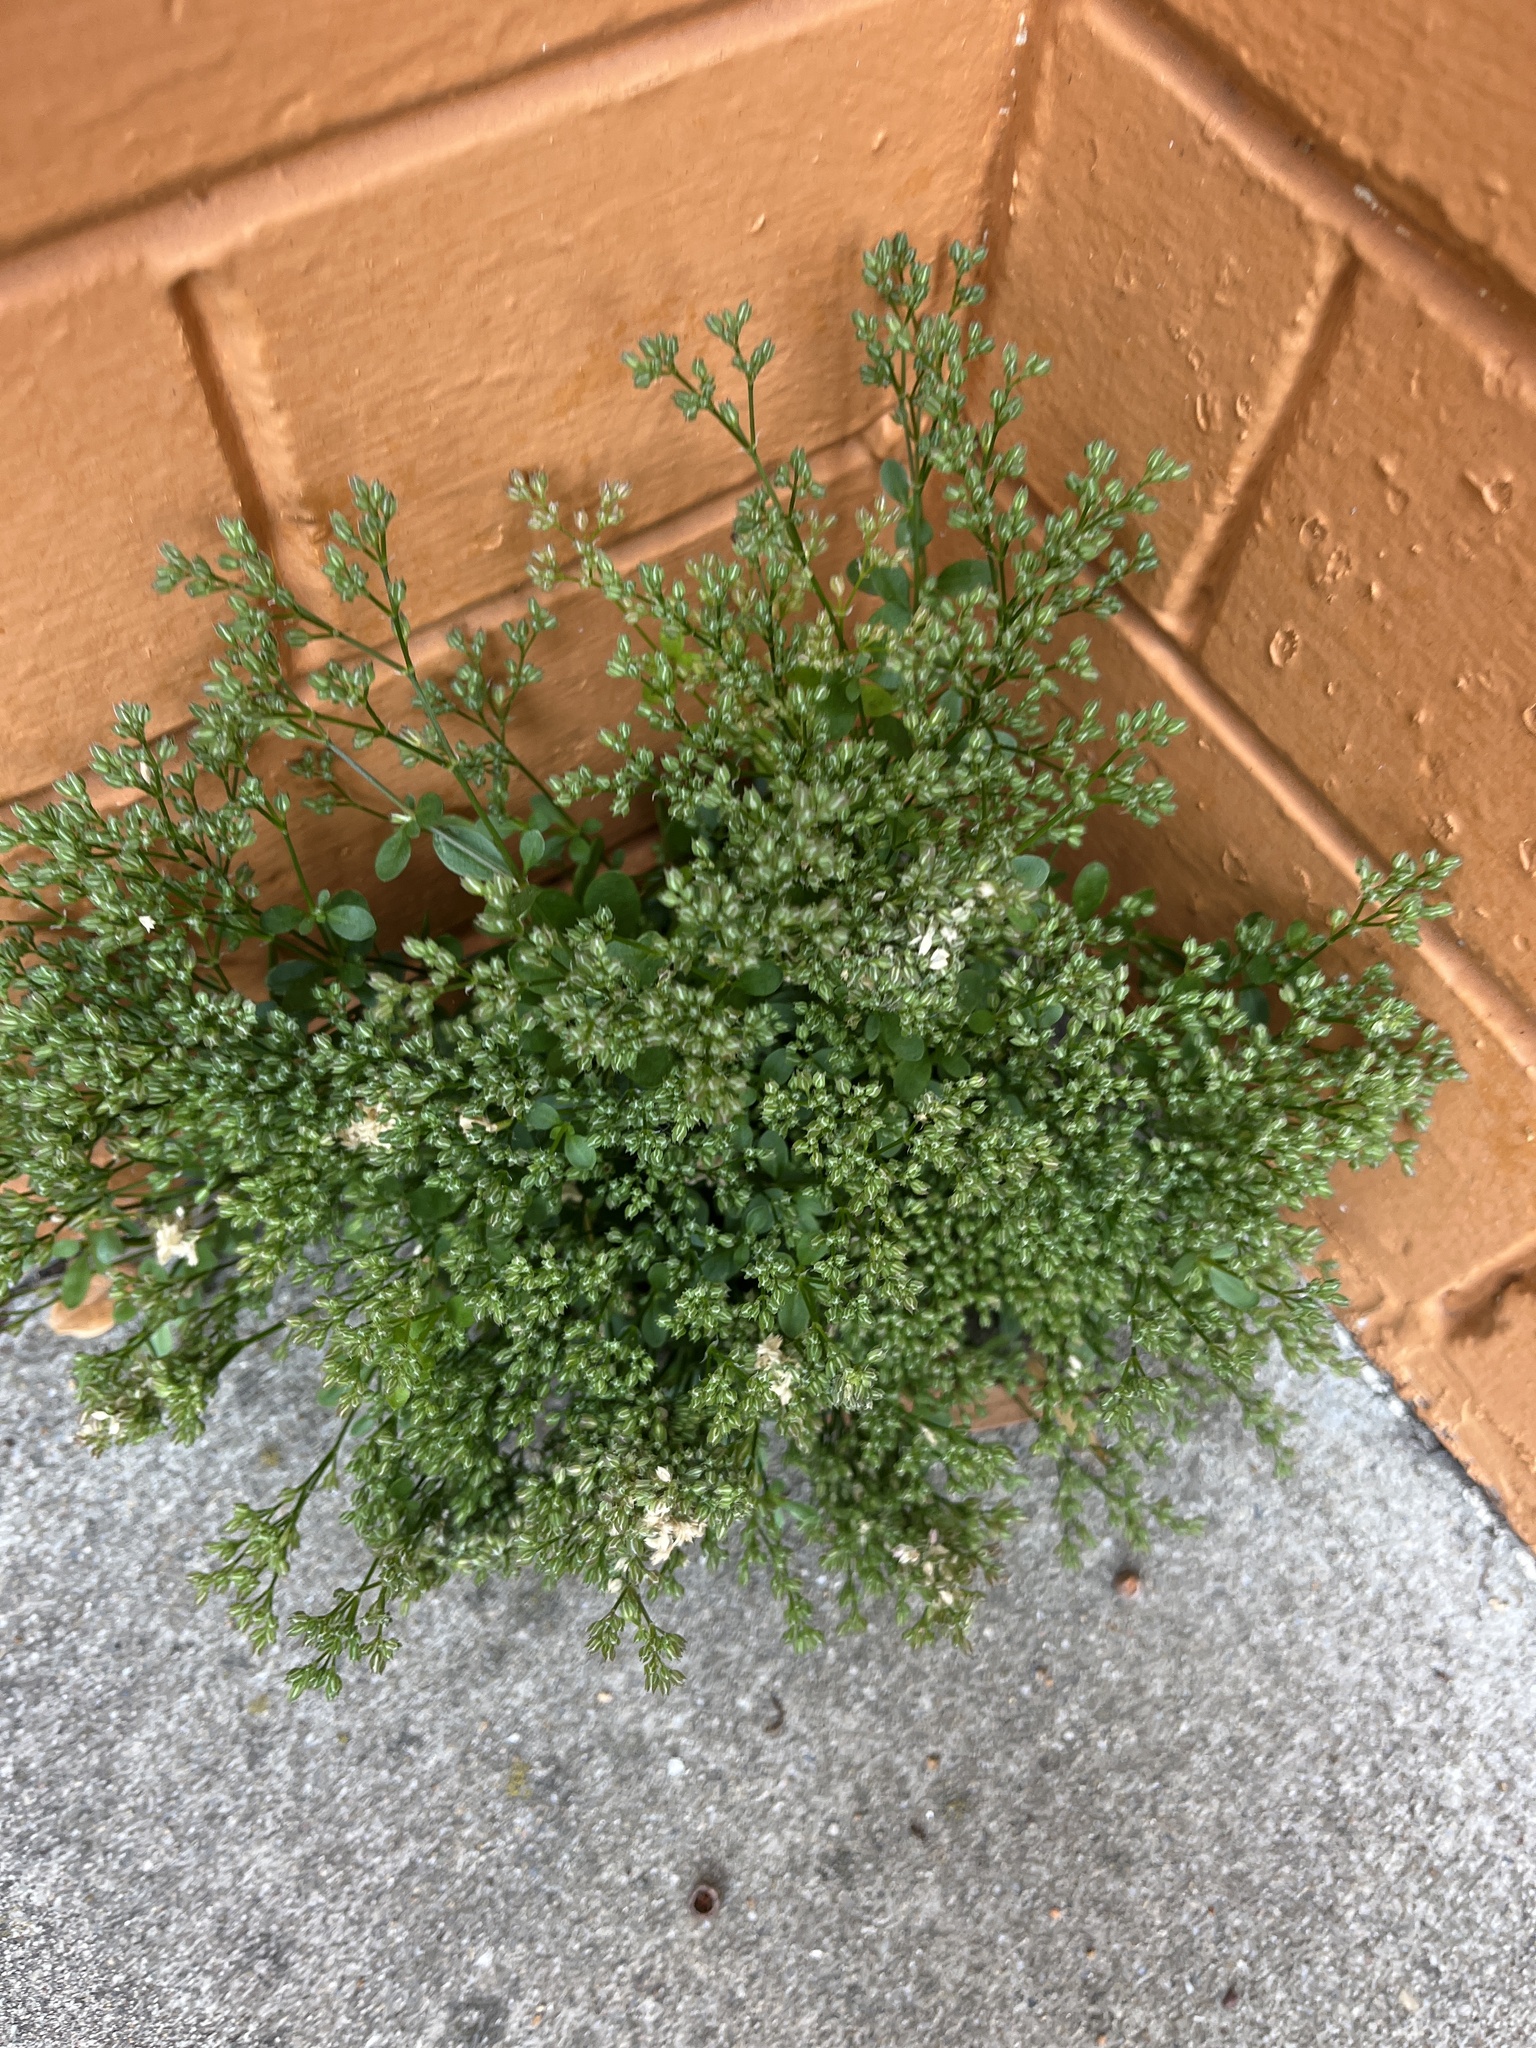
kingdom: Plantae
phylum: Tracheophyta
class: Magnoliopsida
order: Caryophyllales
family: Caryophyllaceae
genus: Polycarpon
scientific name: Polycarpon tetraphyllum
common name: Four-leaved all-seed
